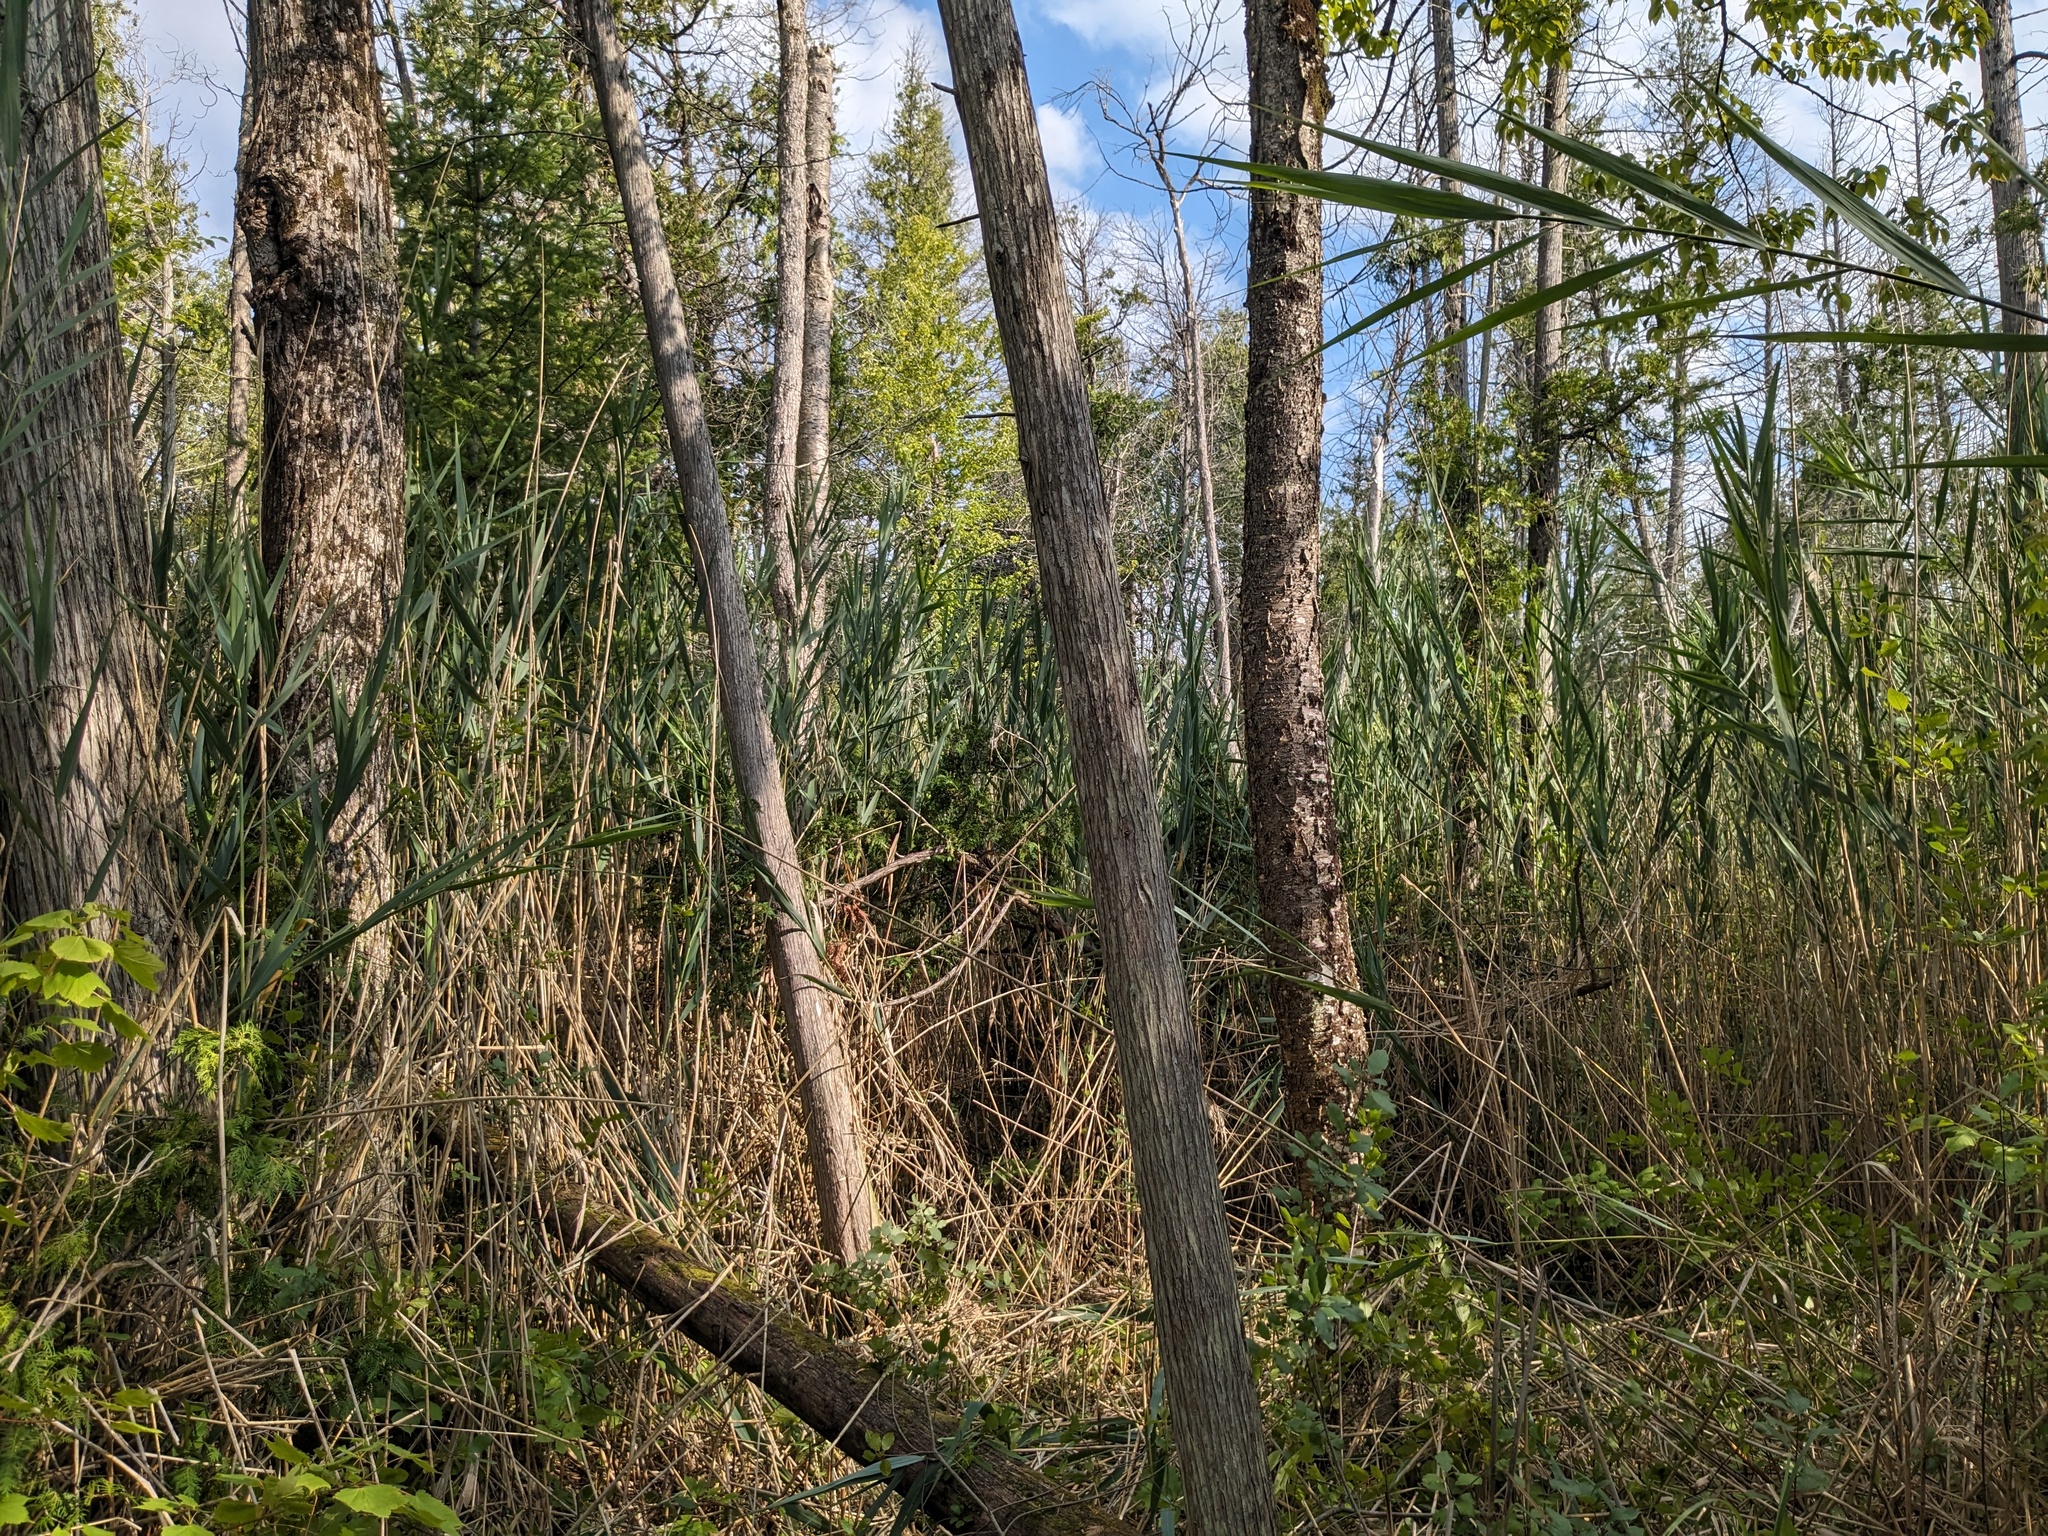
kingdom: Plantae
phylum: Tracheophyta
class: Liliopsida
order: Poales
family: Poaceae
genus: Phragmites
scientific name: Phragmites australis
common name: Common reed
